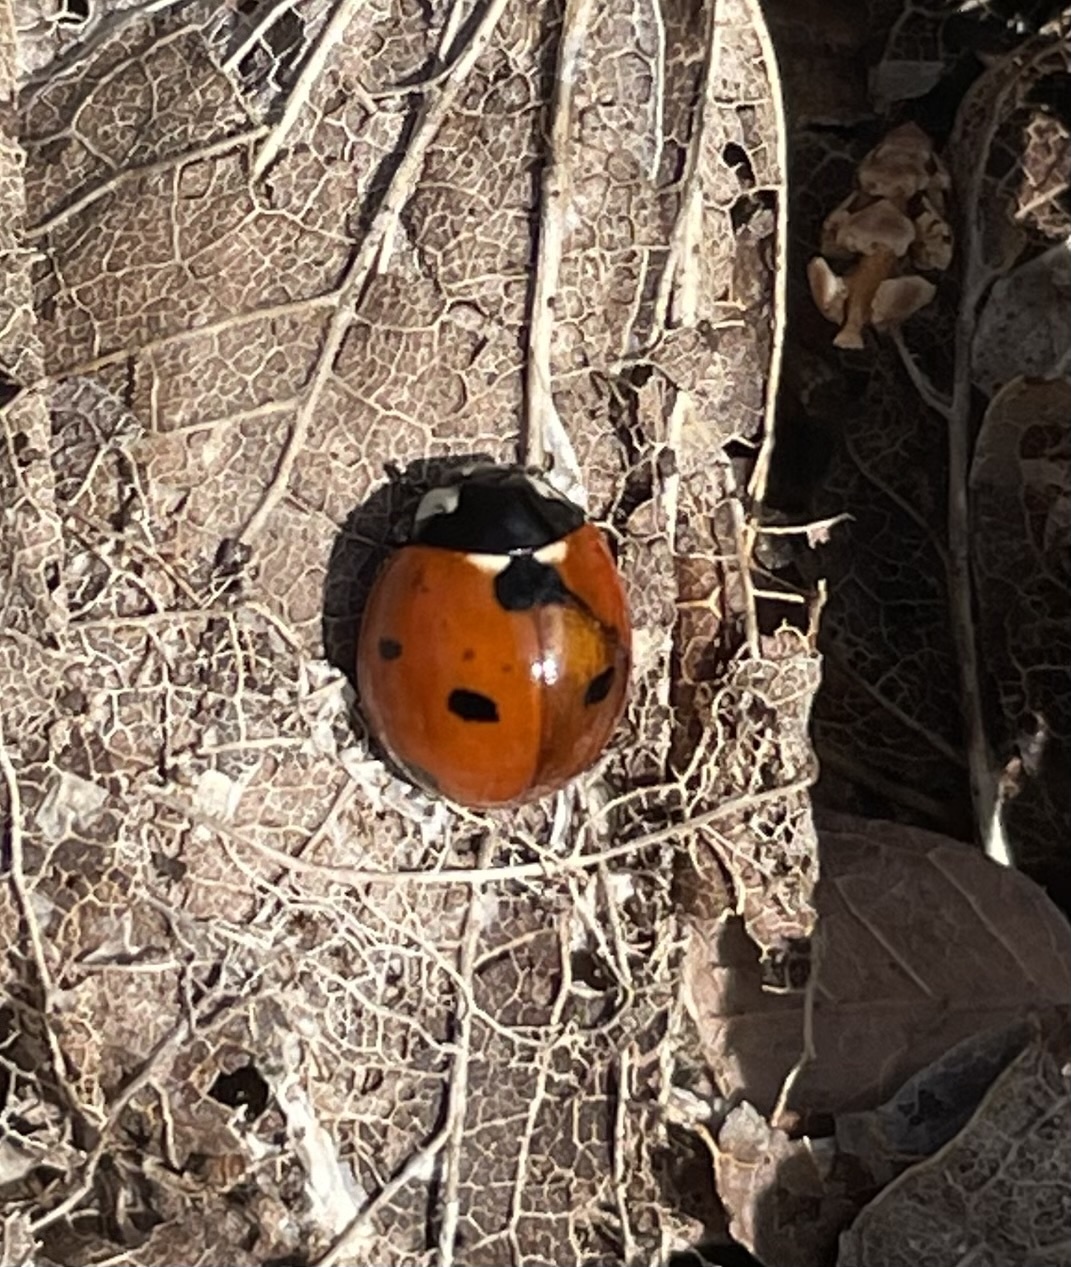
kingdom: Animalia
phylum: Arthropoda
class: Insecta
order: Coleoptera
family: Coccinellidae
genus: Coccinella
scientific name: Coccinella septempunctata
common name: Sevenspotted lady beetle
